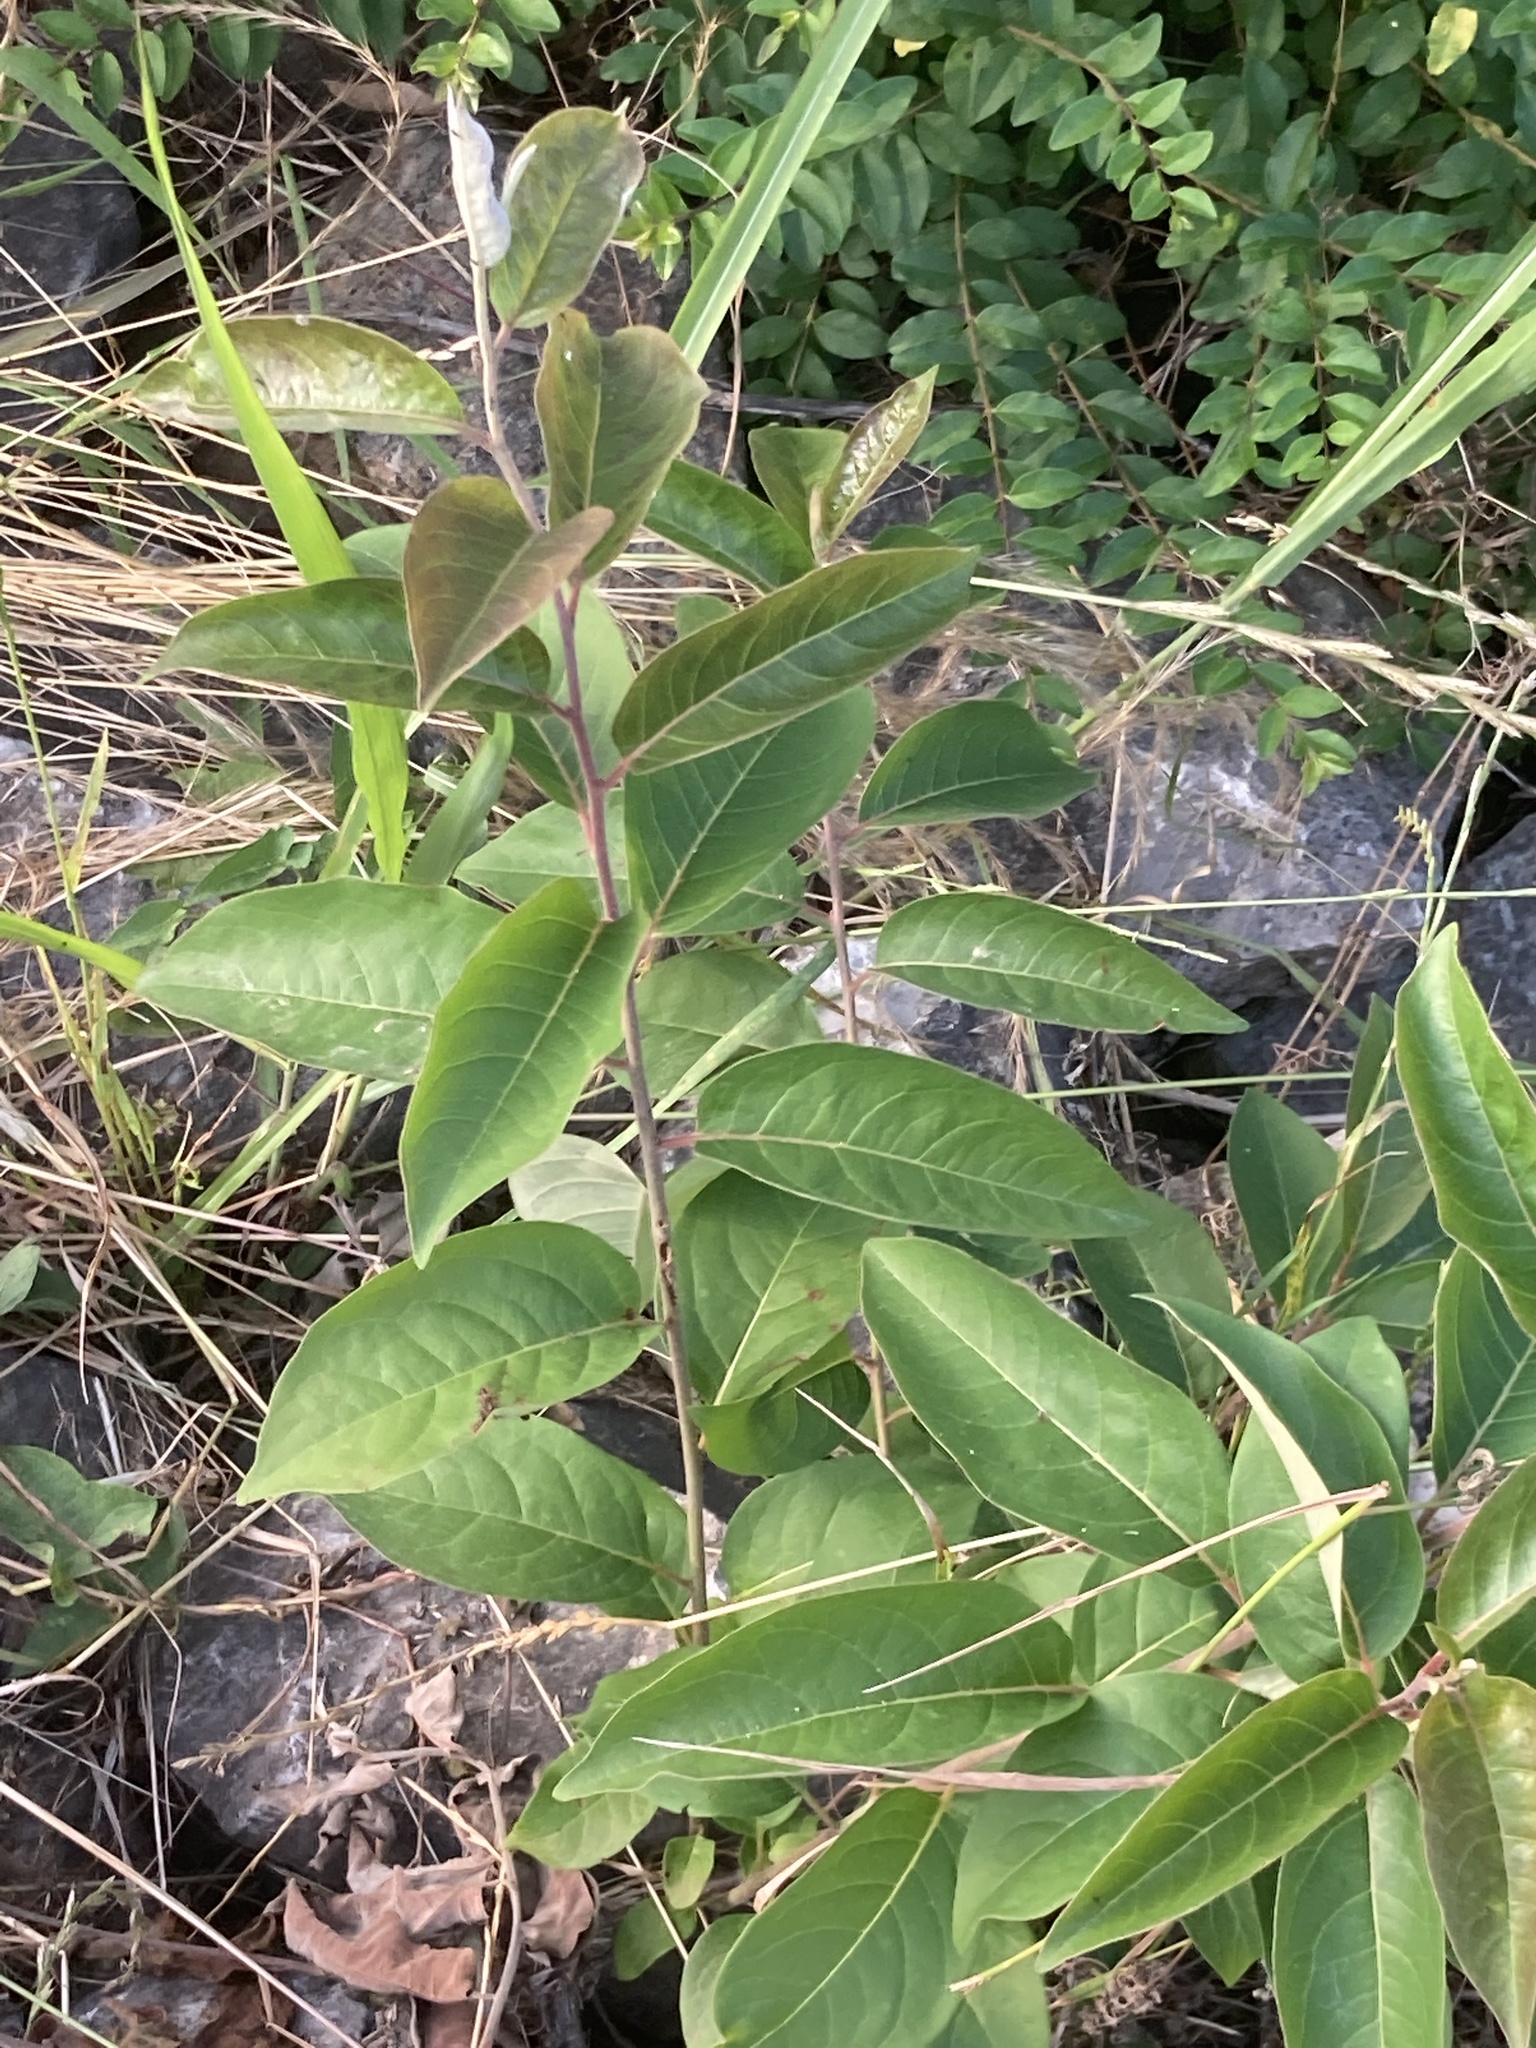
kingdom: Plantae
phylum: Tracheophyta
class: Magnoliopsida
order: Ericales
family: Ebenaceae
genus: Diospyros
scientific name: Diospyros virginiana
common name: Persimmon
